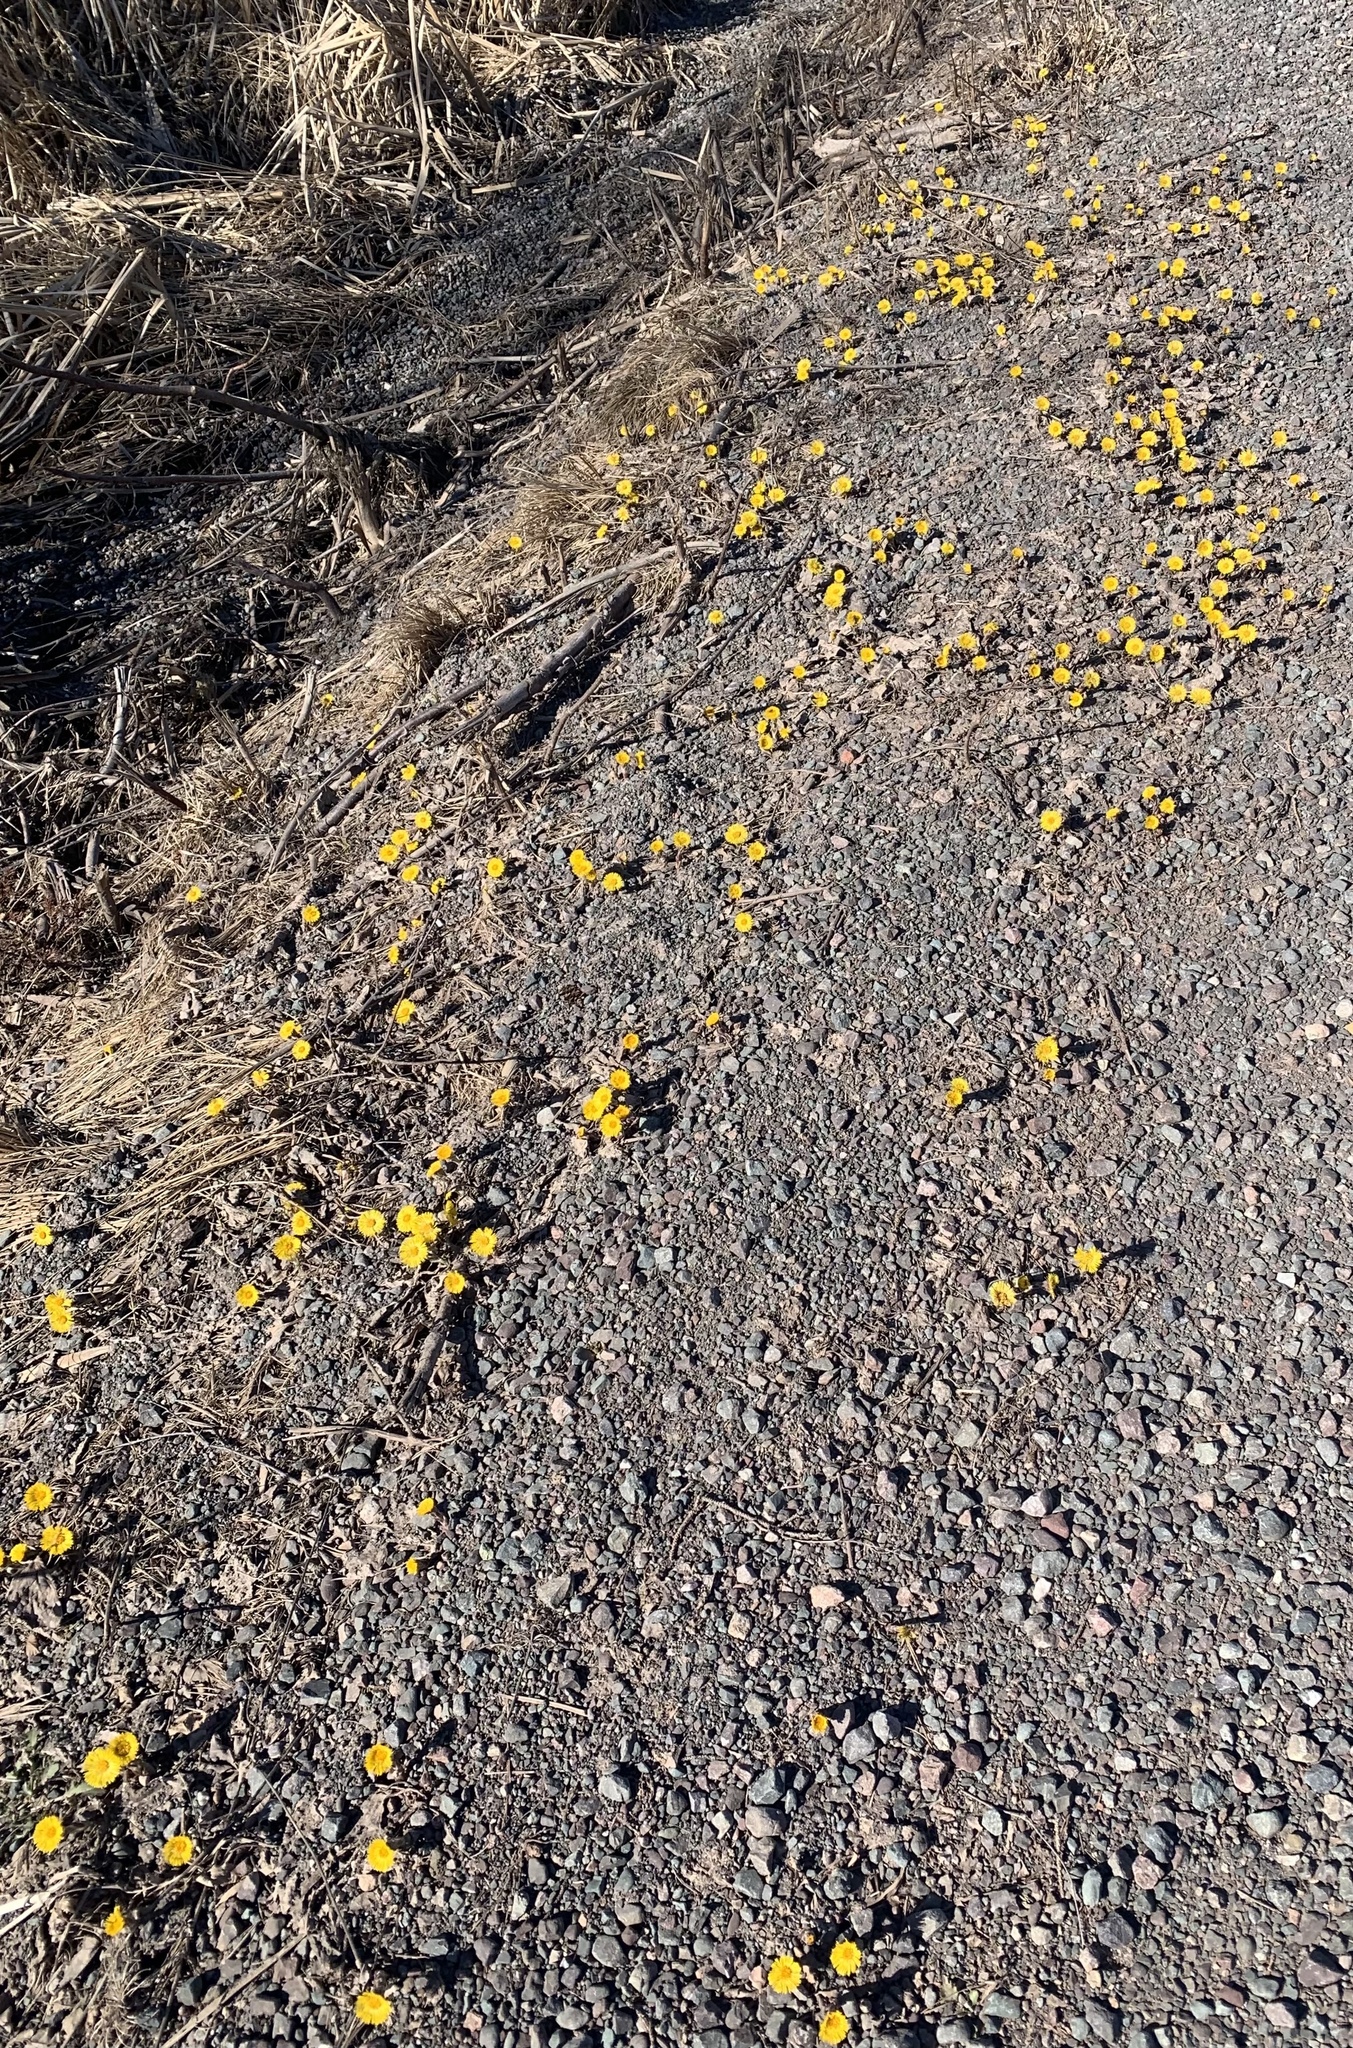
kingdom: Plantae
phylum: Tracheophyta
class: Magnoliopsida
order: Asterales
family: Asteraceae
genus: Tussilago
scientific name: Tussilago farfara
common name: Coltsfoot
